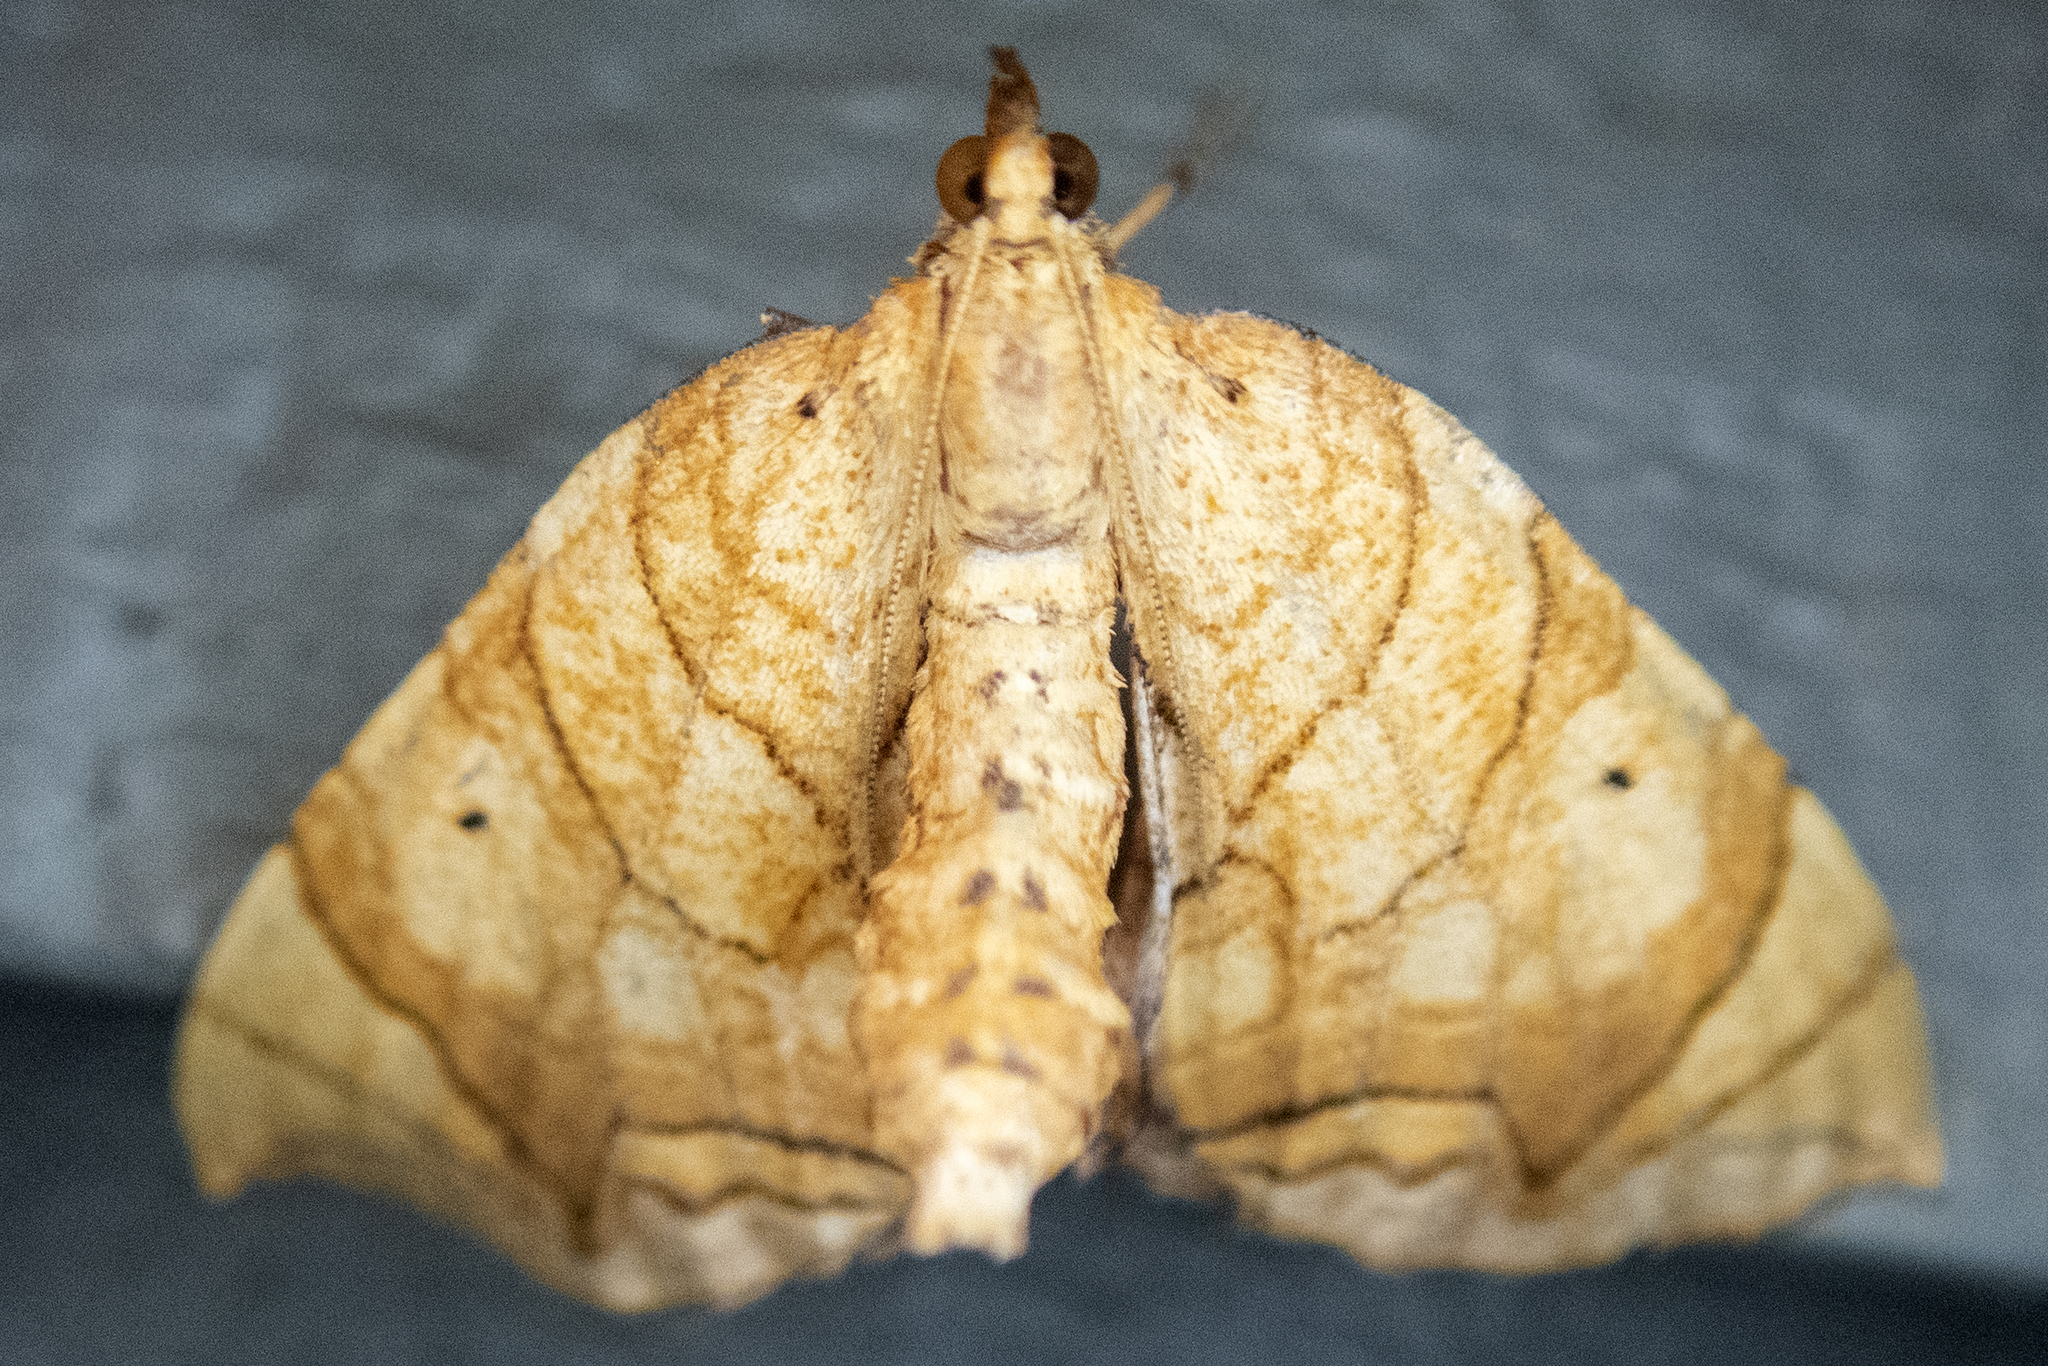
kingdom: Animalia
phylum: Arthropoda
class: Insecta
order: Lepidoptera
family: Geometridae
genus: Eulithis
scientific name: Eulithis gracilineata
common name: Greater grapevine looper moth
